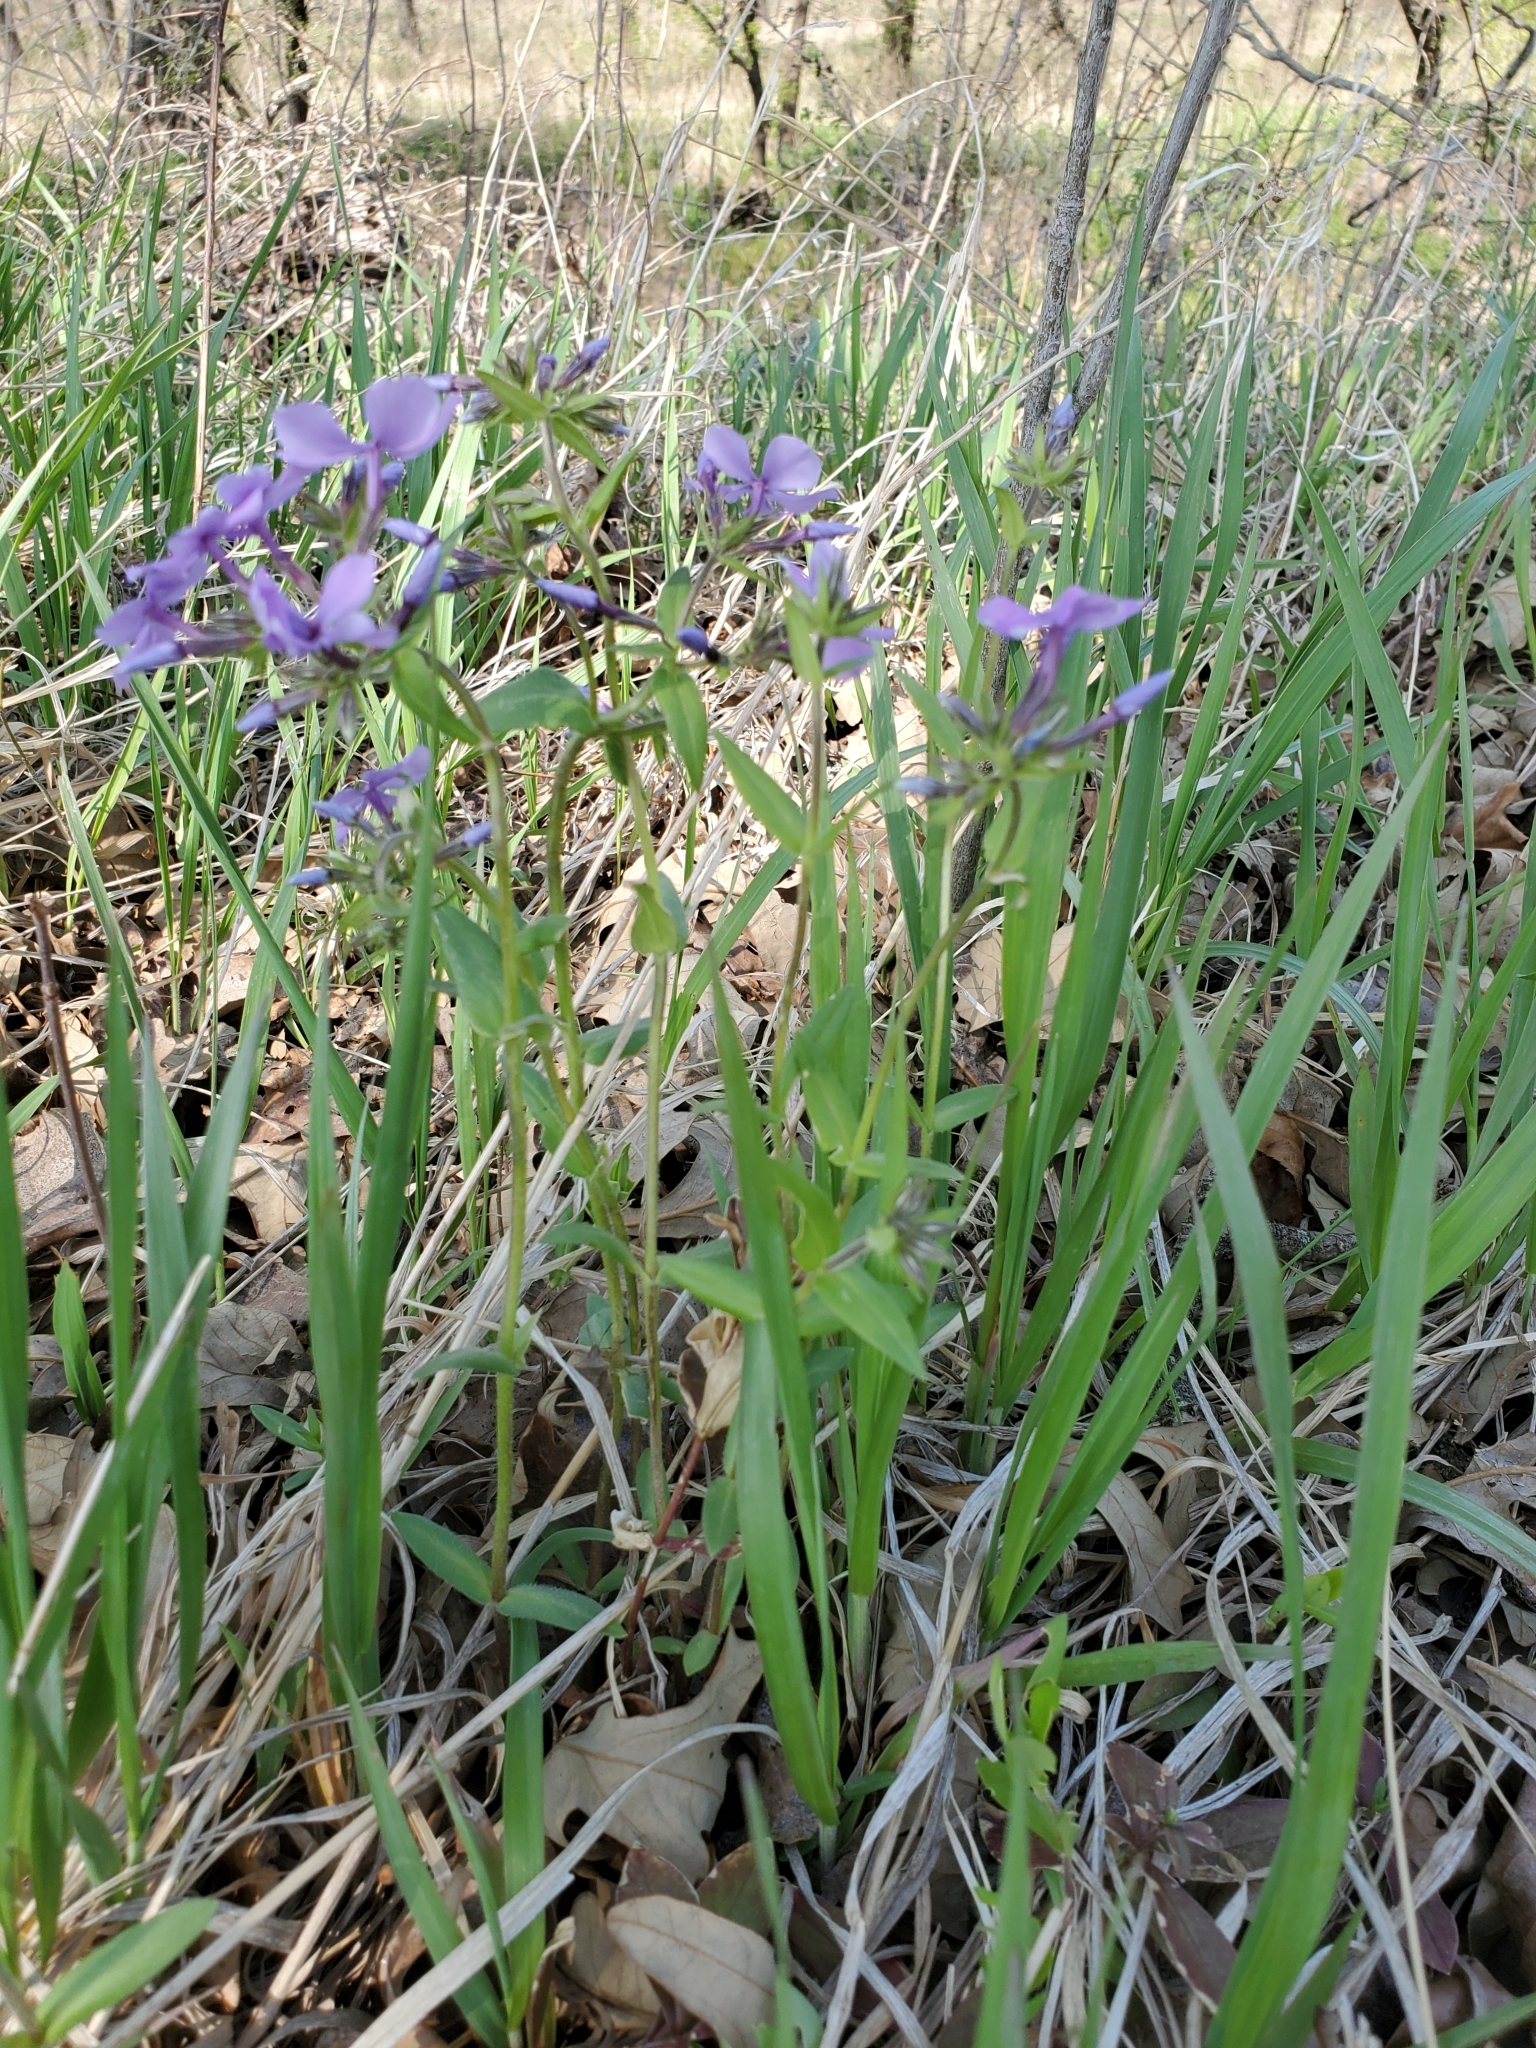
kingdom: Plantae
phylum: Tracheophyta
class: Magnoliopsida
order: Ericales
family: Polemoniaceae
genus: Phlox
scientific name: Phlox divaricata
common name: Blue phlox
